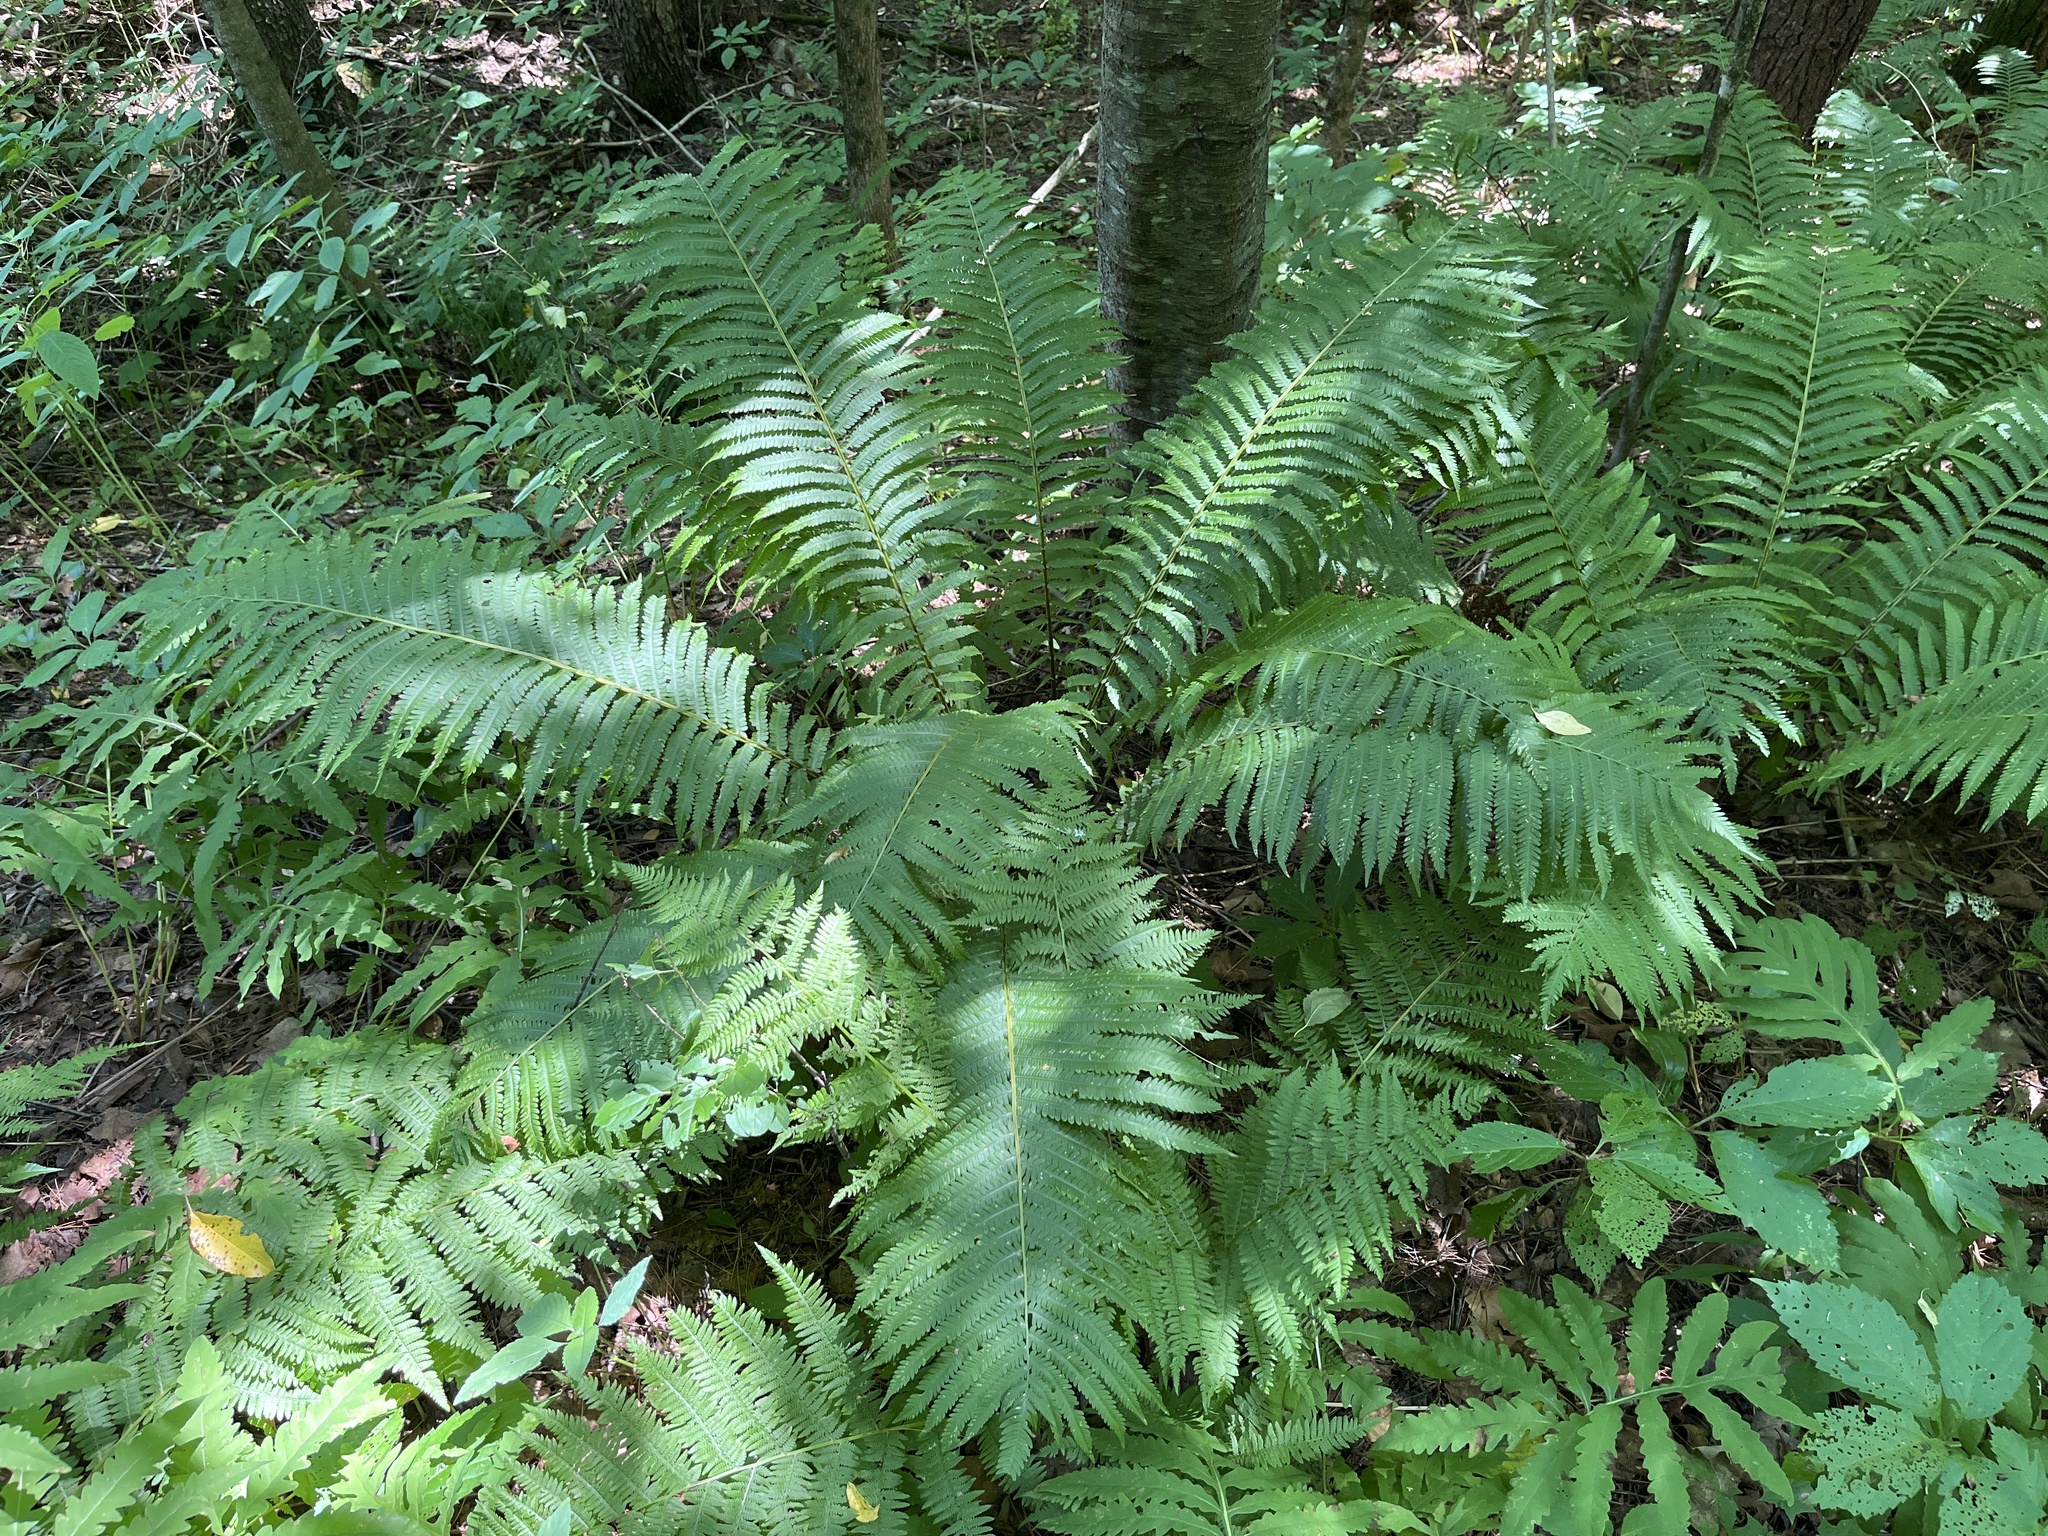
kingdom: Plantae
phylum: Tracheophyta
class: Polypodiopsida
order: Polypodiales
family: Onocleaceae
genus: Matteuccia
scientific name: Matteuccia struthiopteris
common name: Ostrich fern
